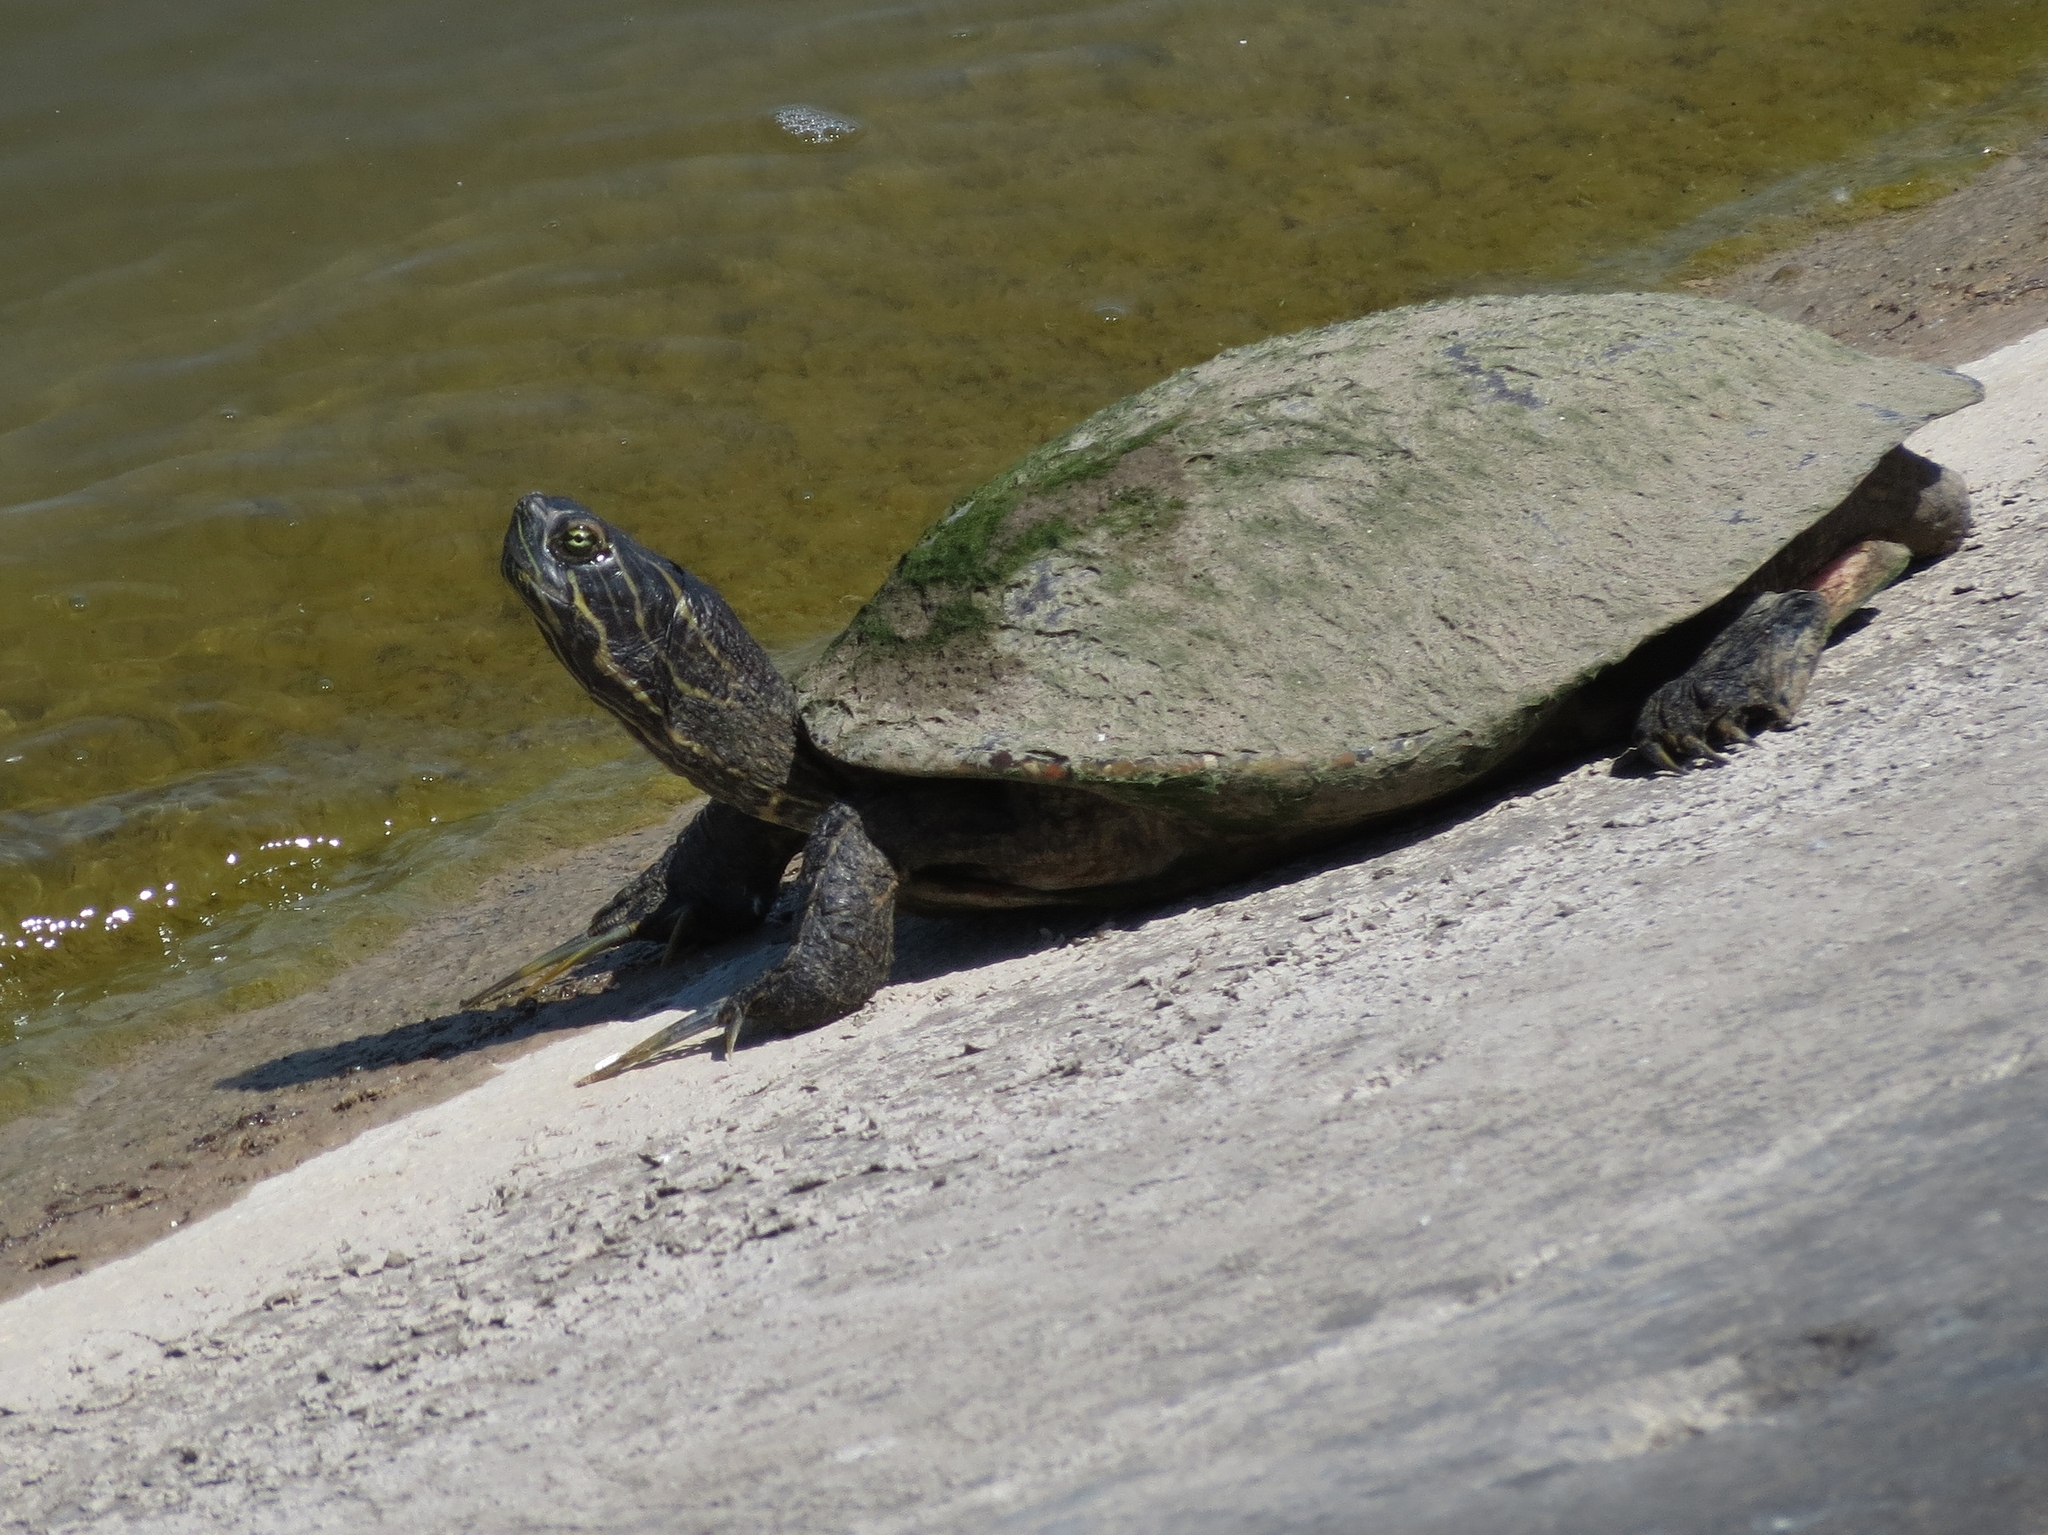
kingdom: Animalia
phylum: Chordata
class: Testudines
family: Emydidae
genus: Trachemys
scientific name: Trachemys scripta
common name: Slider
